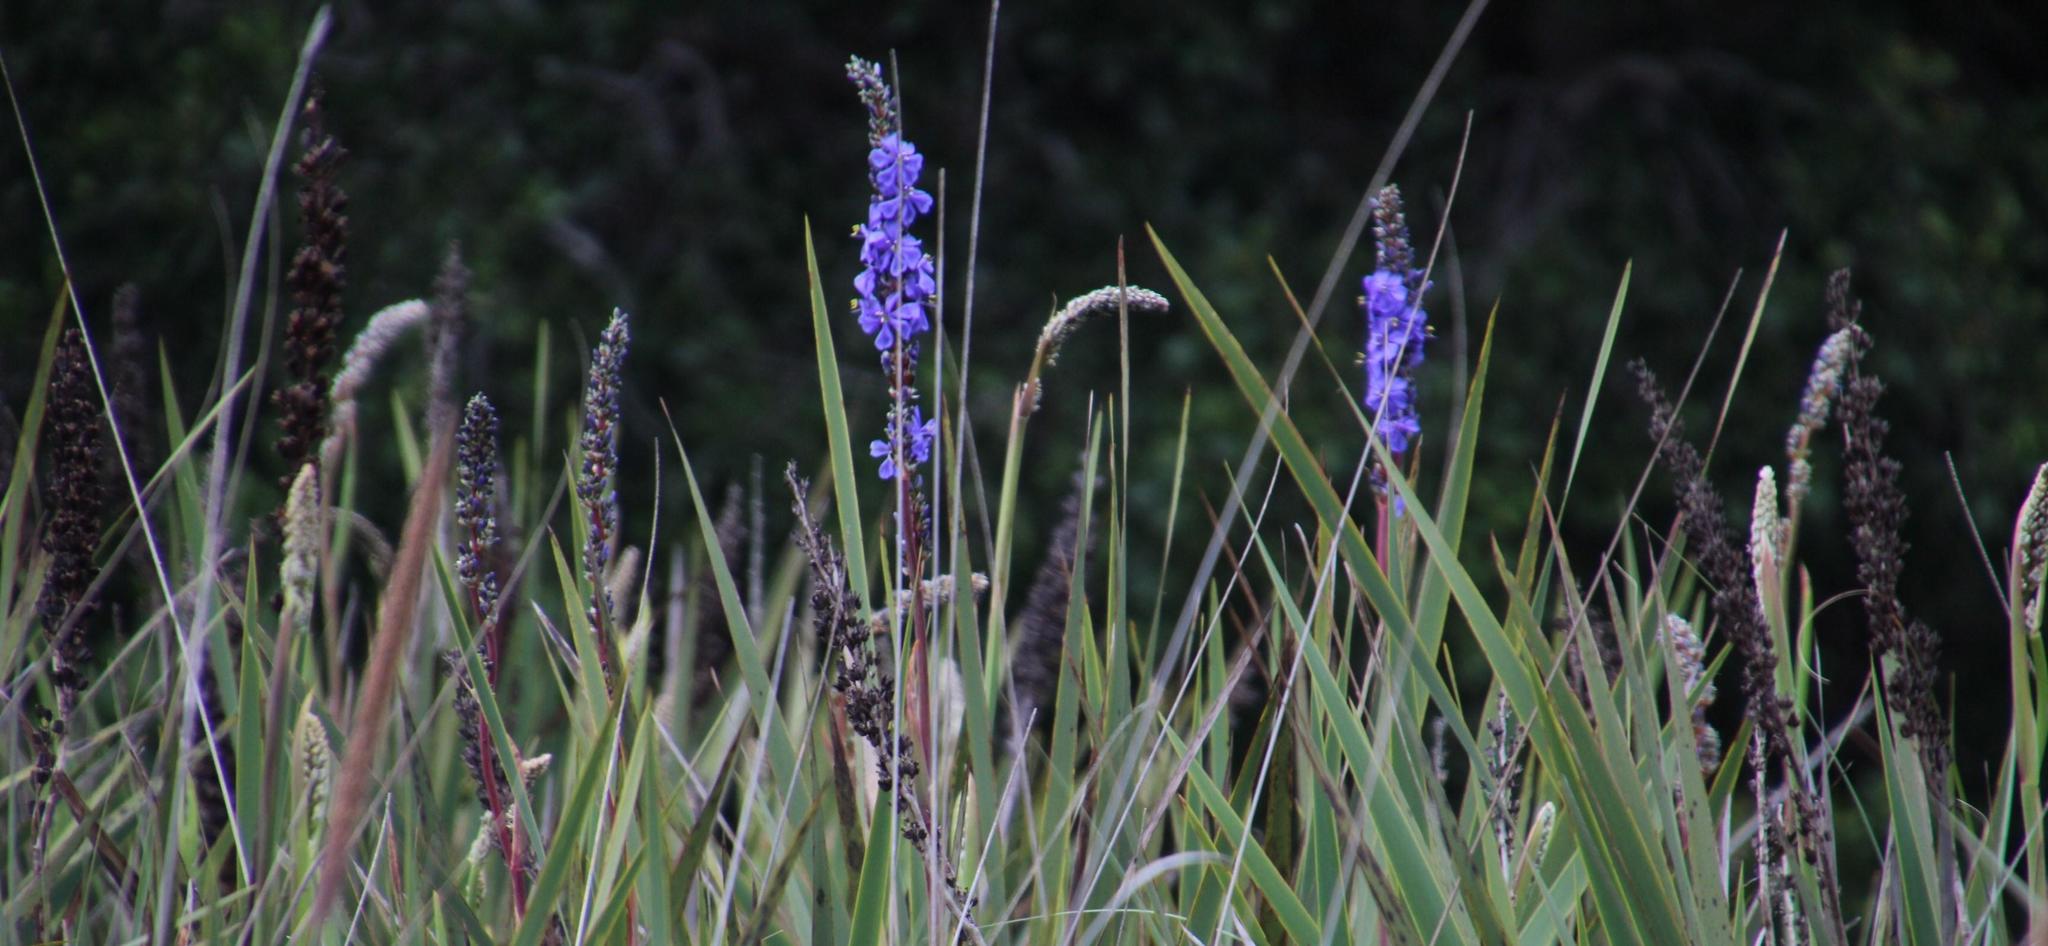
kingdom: Plantae
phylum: Tracheophyta
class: Liliopsida
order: Asparagales
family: Iridaceae
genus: Aristea
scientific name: Aristea capitata
